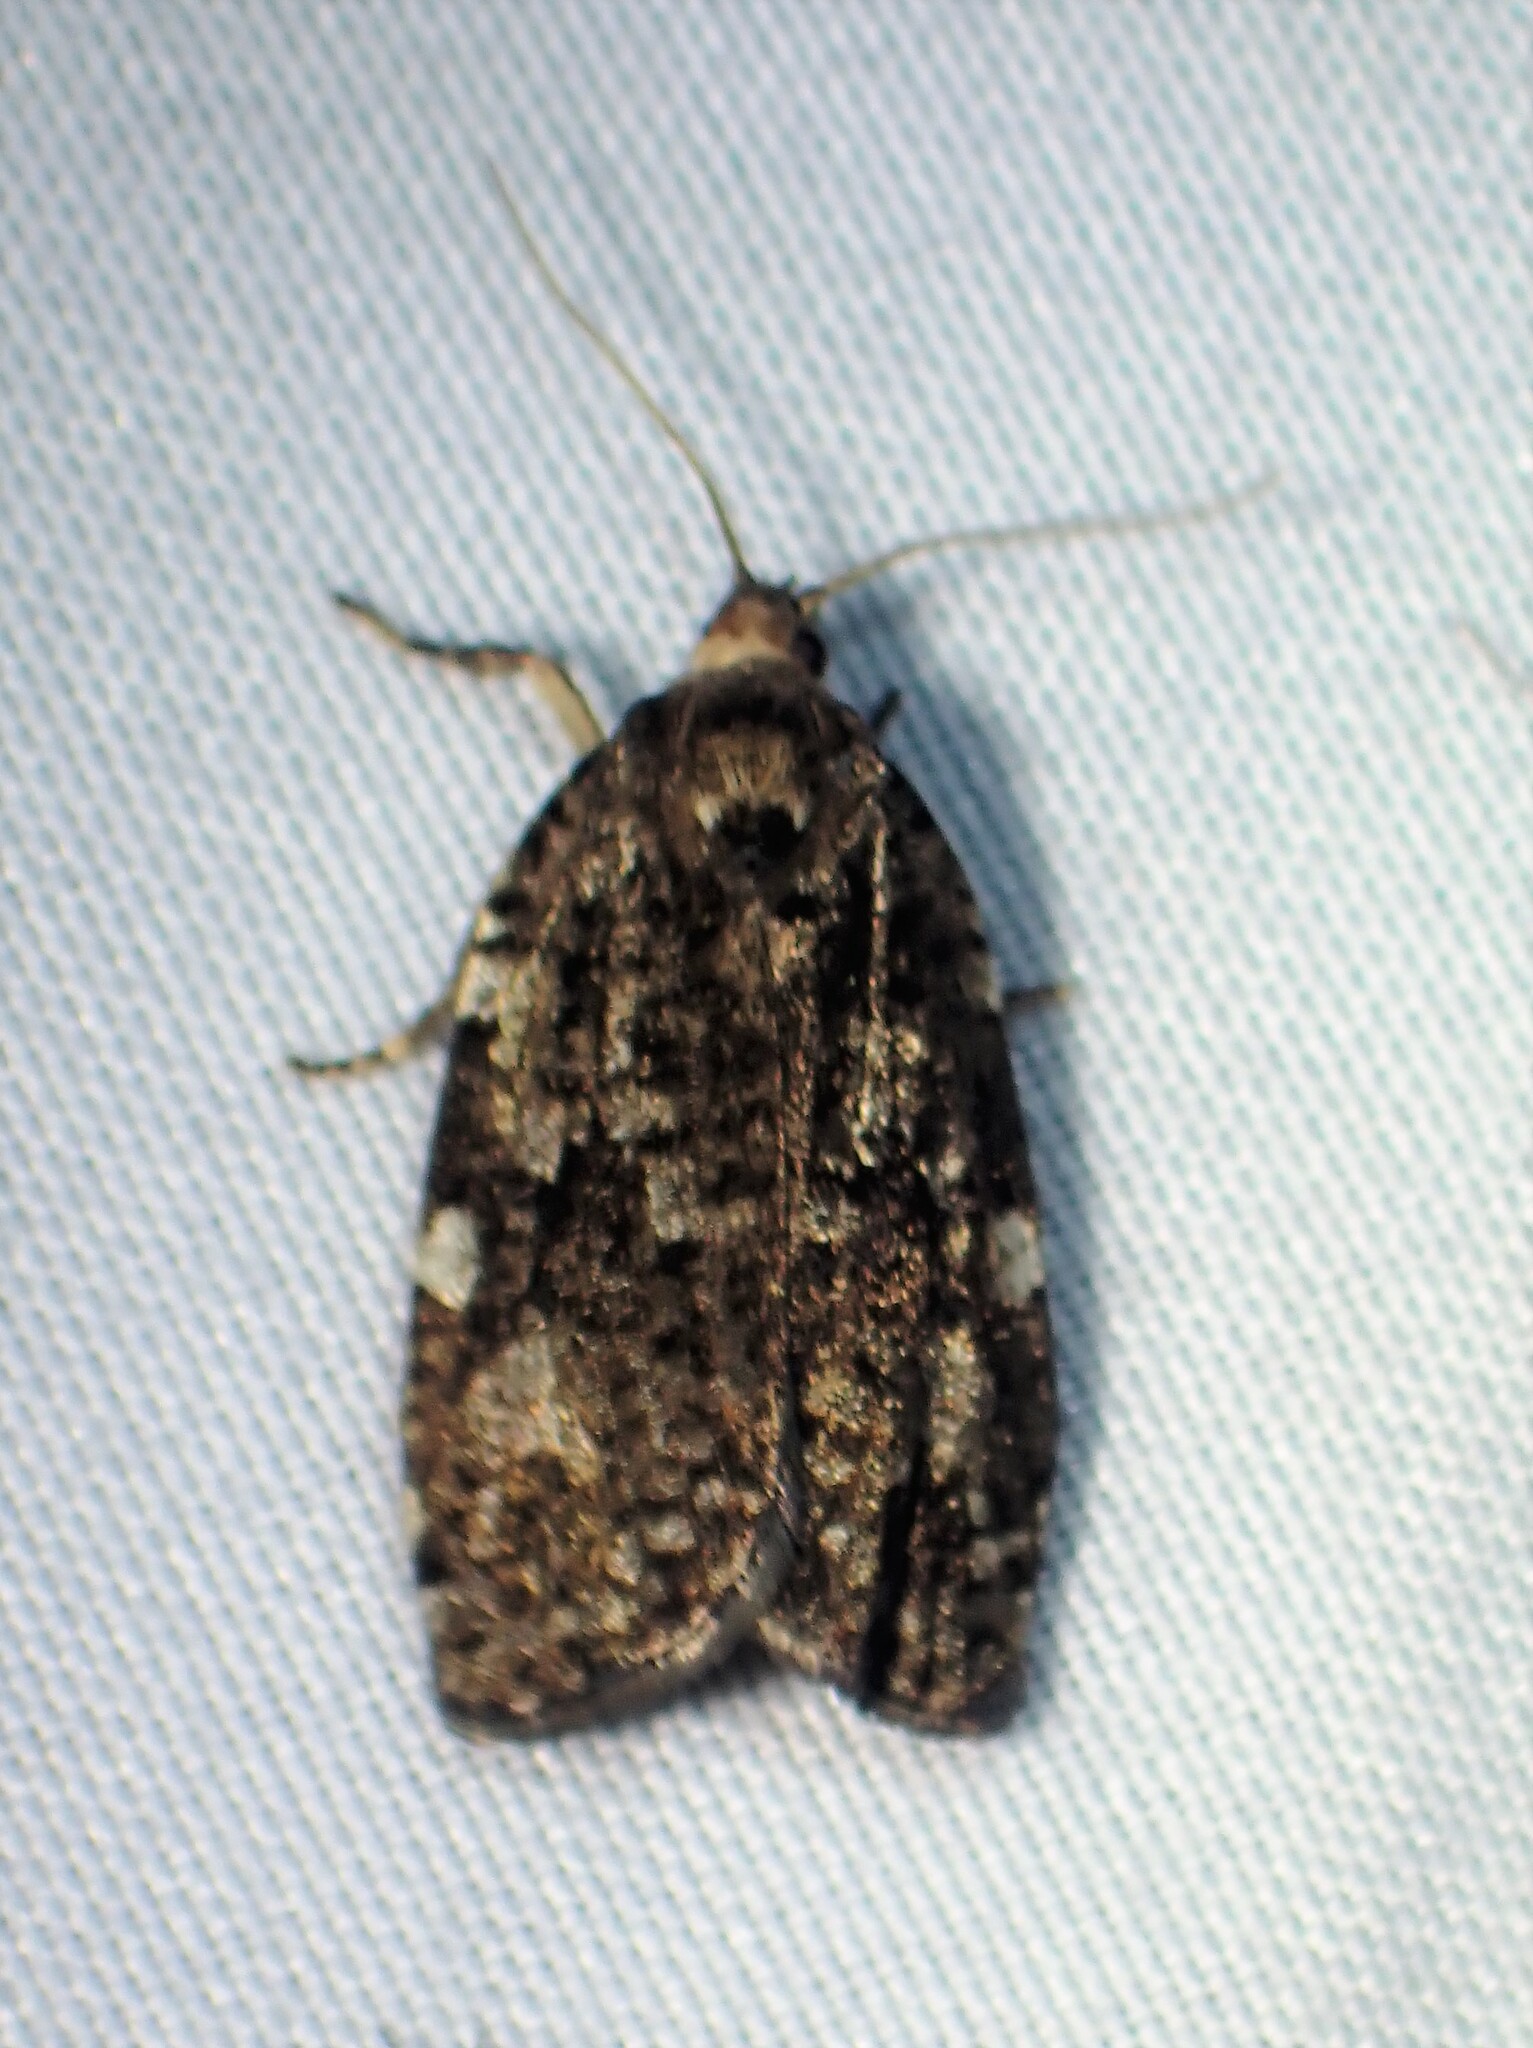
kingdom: Animalia
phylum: Arthropoda
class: Insecta
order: Lepidoptera
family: Tortricidae
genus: Choristoneura
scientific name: Choristoneura fumiferana
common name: Spruce budworm
